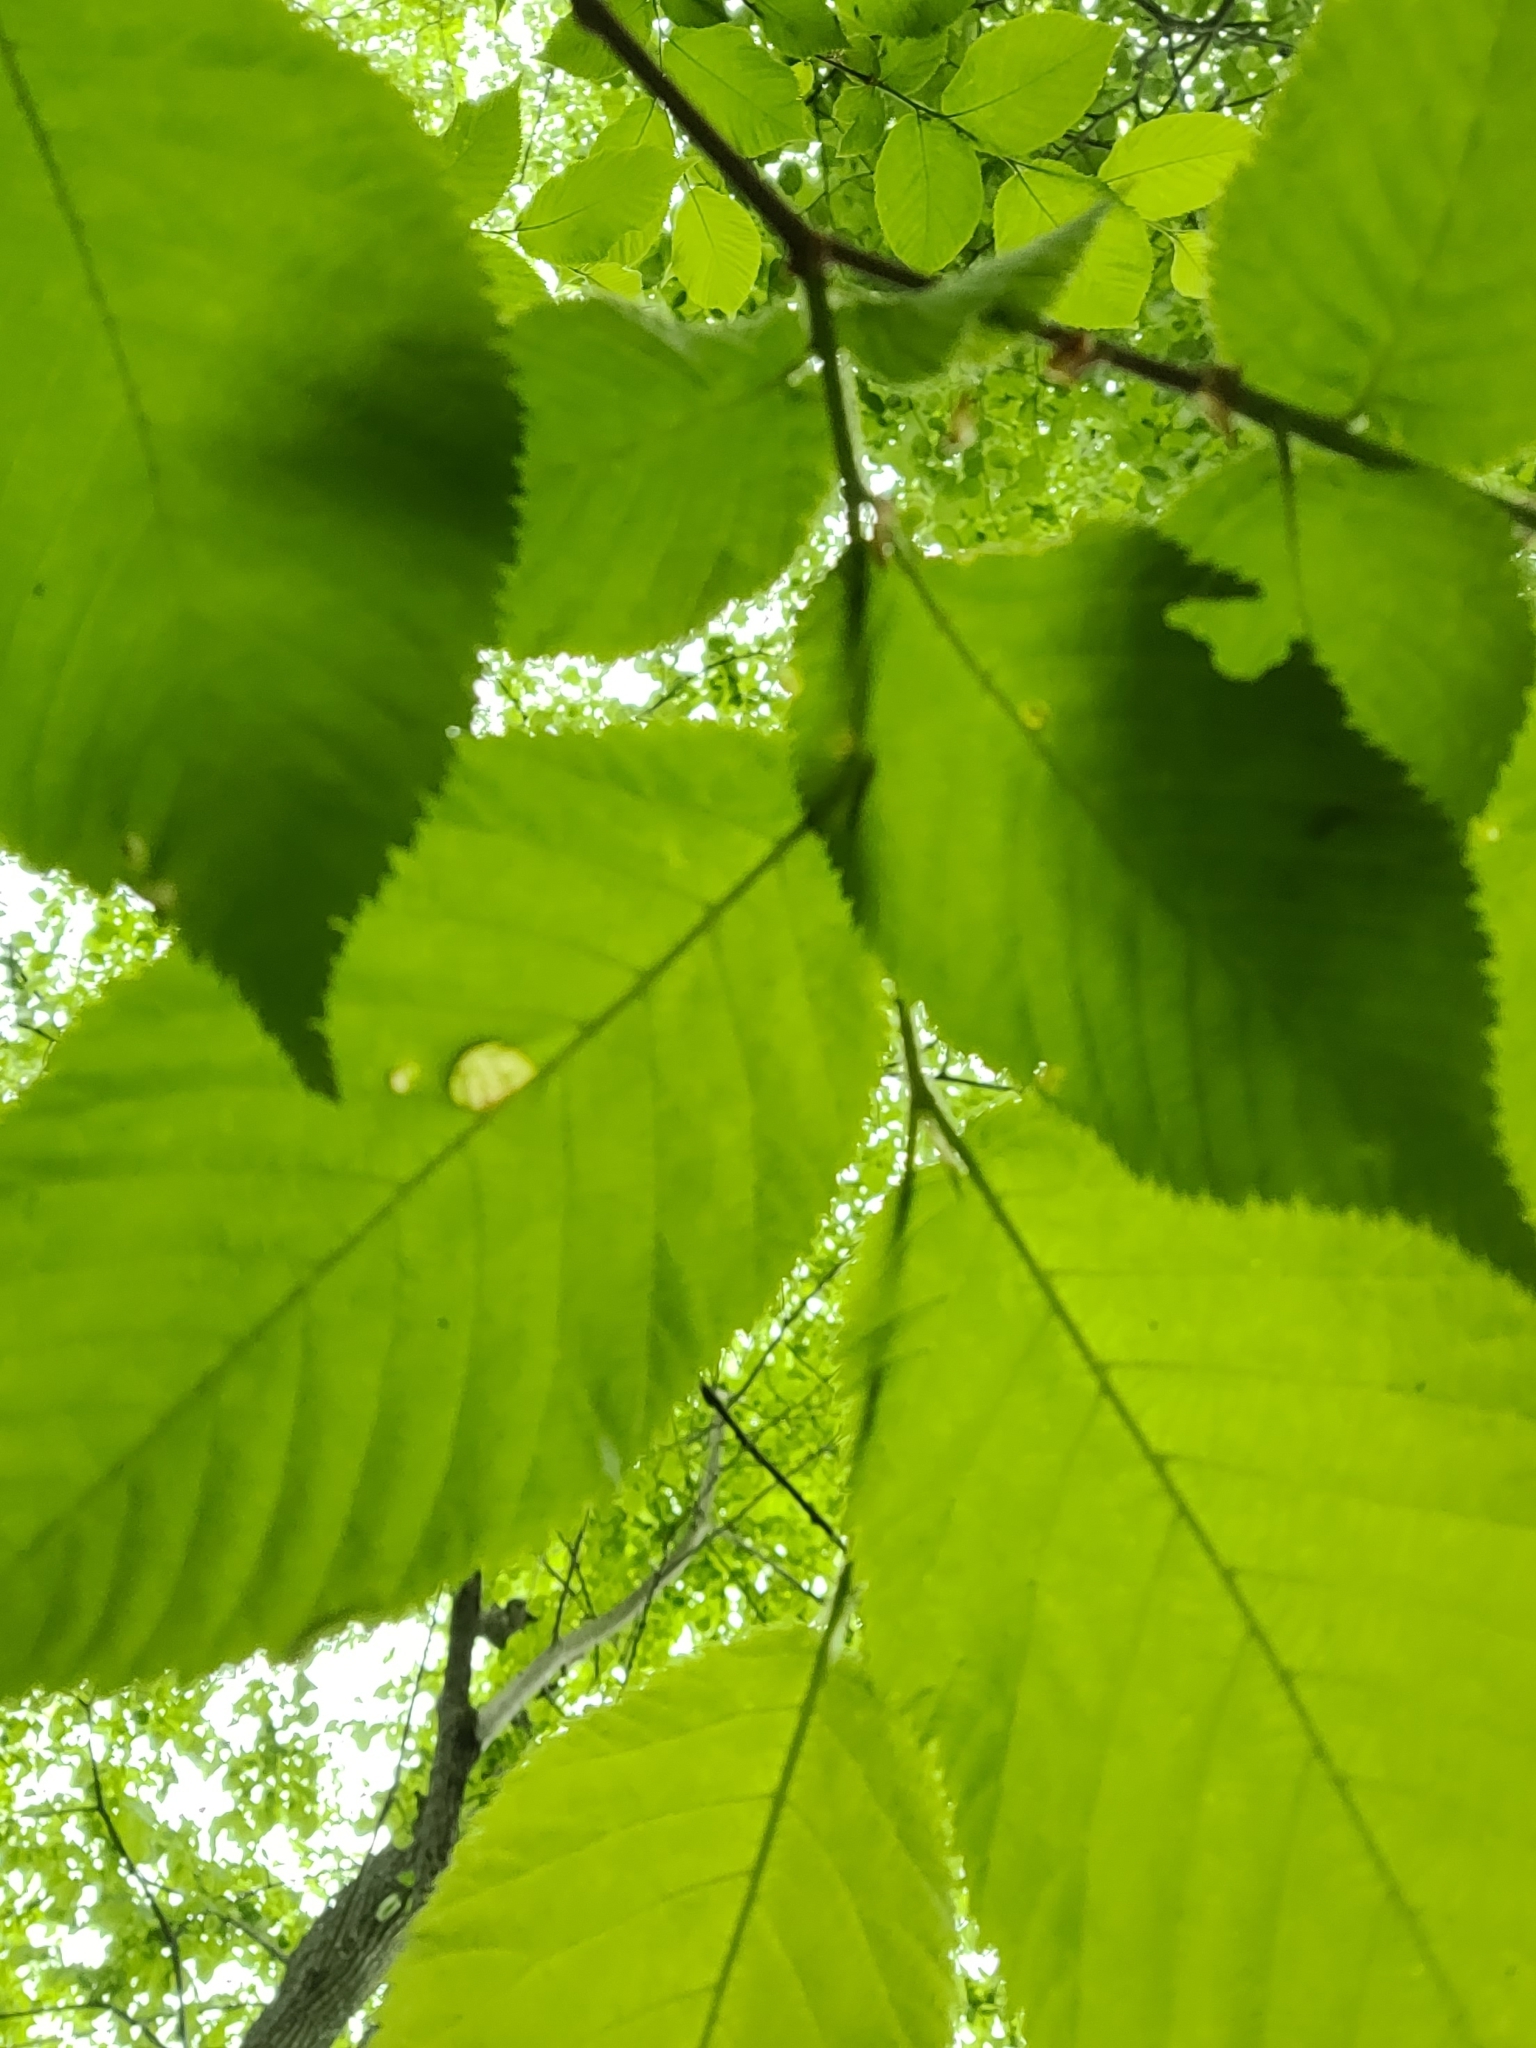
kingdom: Animalia
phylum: Arthropoda
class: Insecta
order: Hemiptera
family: Aphididae
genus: Tetraneura
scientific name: Tetraneura nigriabdominalis
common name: Aphid
